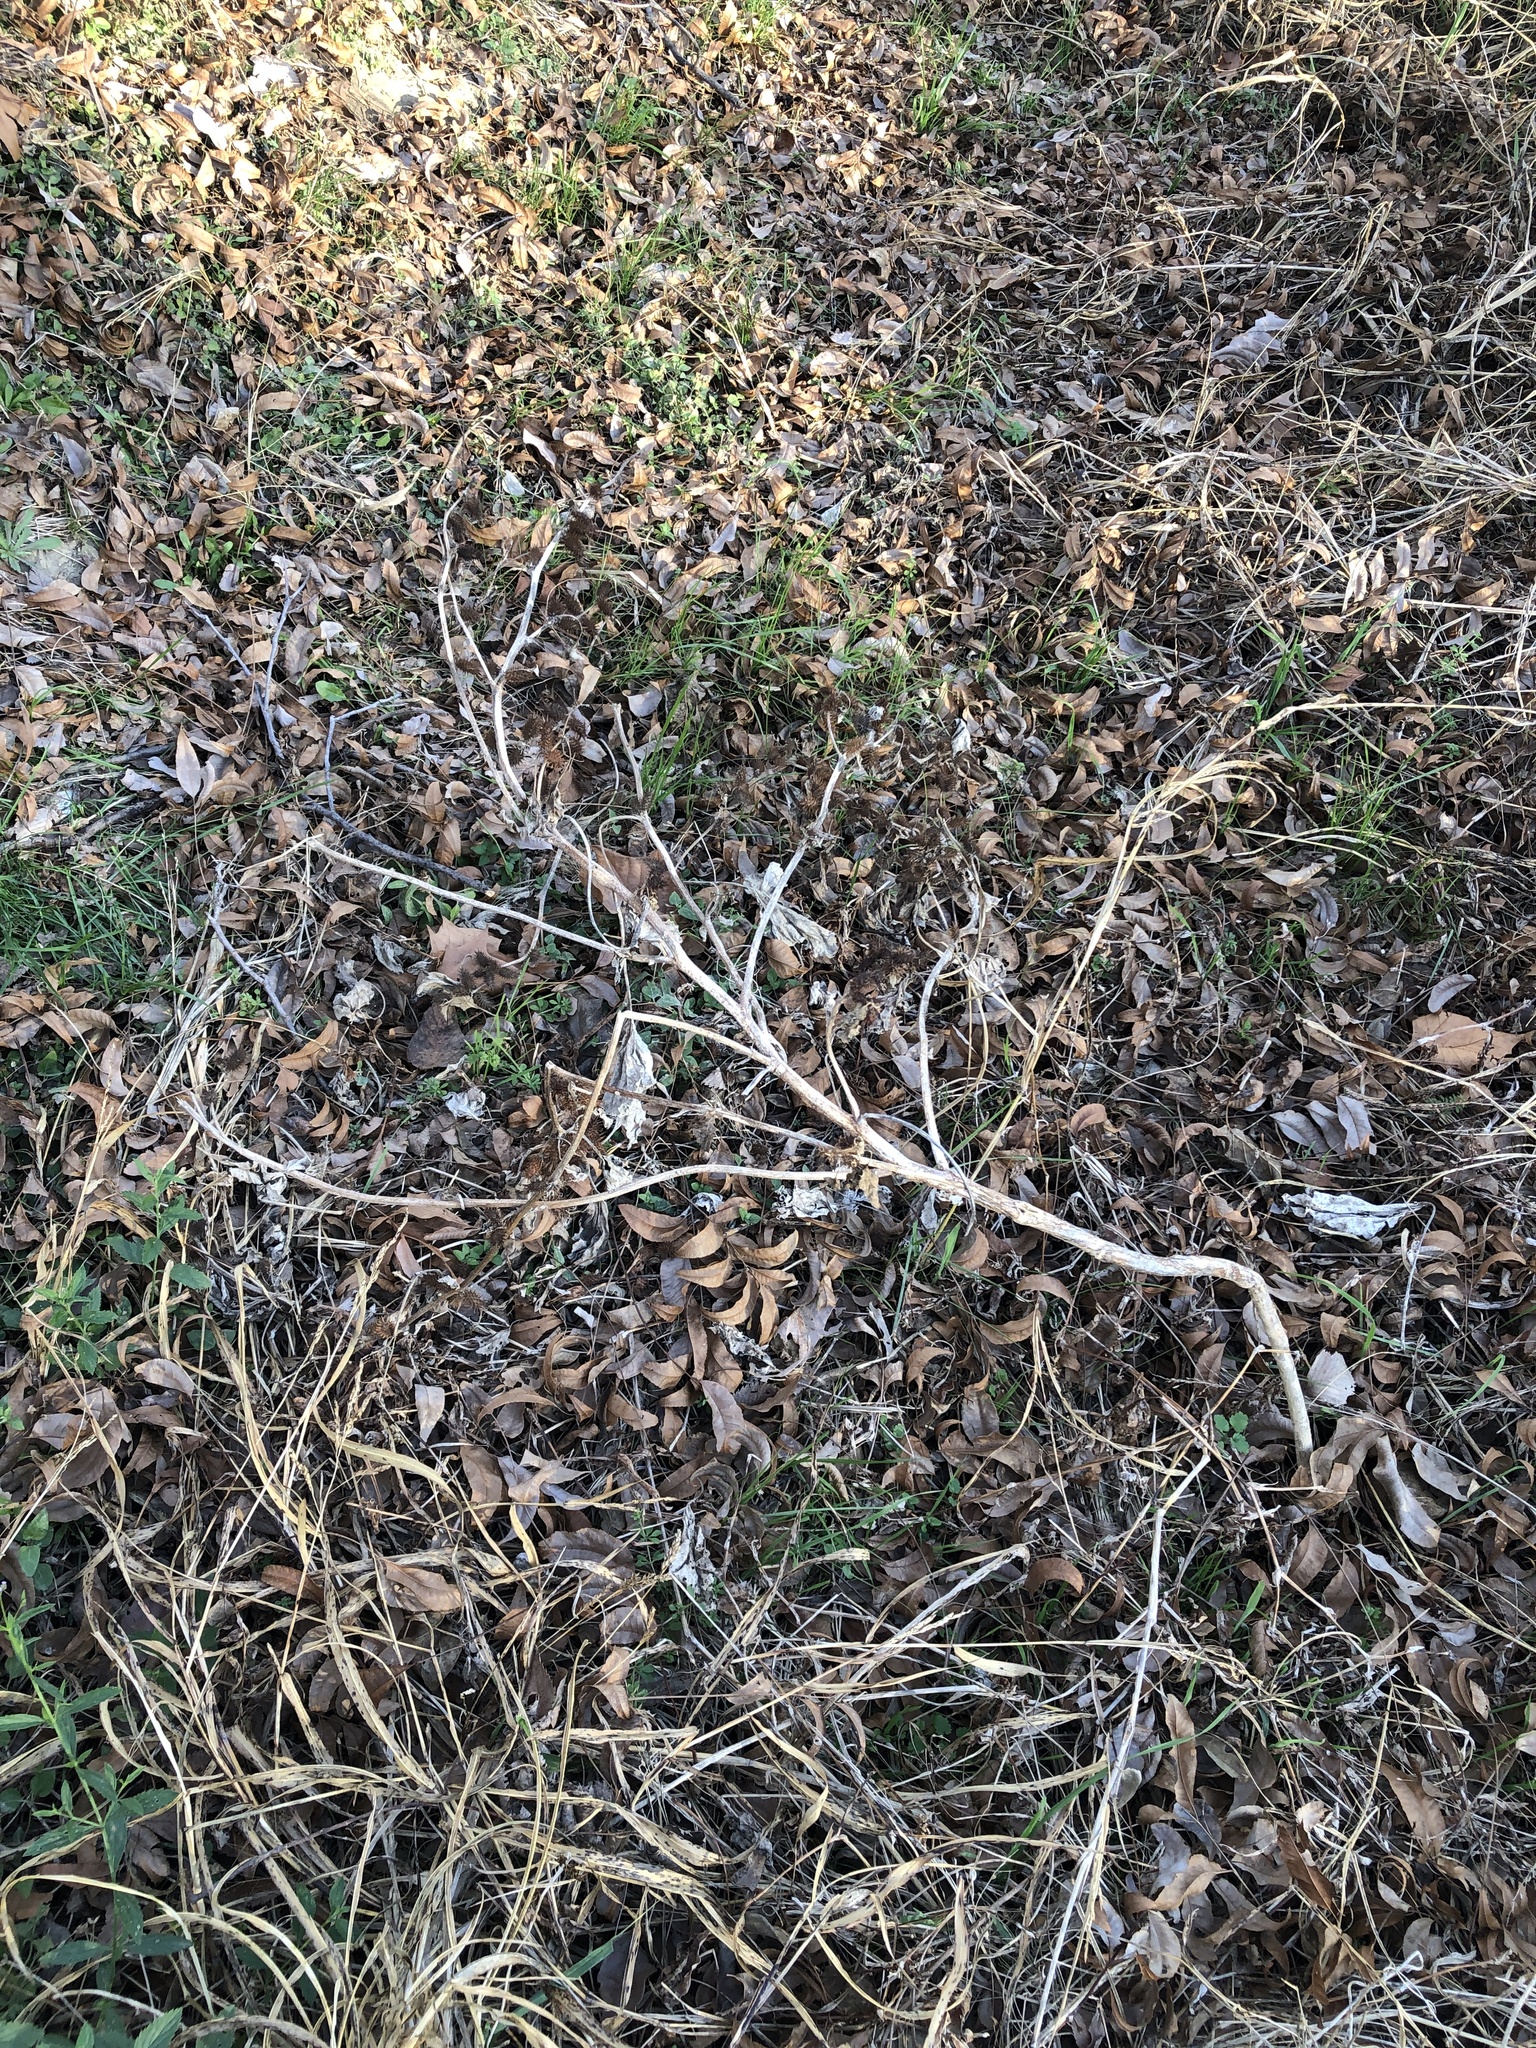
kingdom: Plantae
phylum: Tracheophyta
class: Magnoliopsida
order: Asterales
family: Asteraceae
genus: Xanthium
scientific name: Xanthium strumarium
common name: Rough cocklebur
